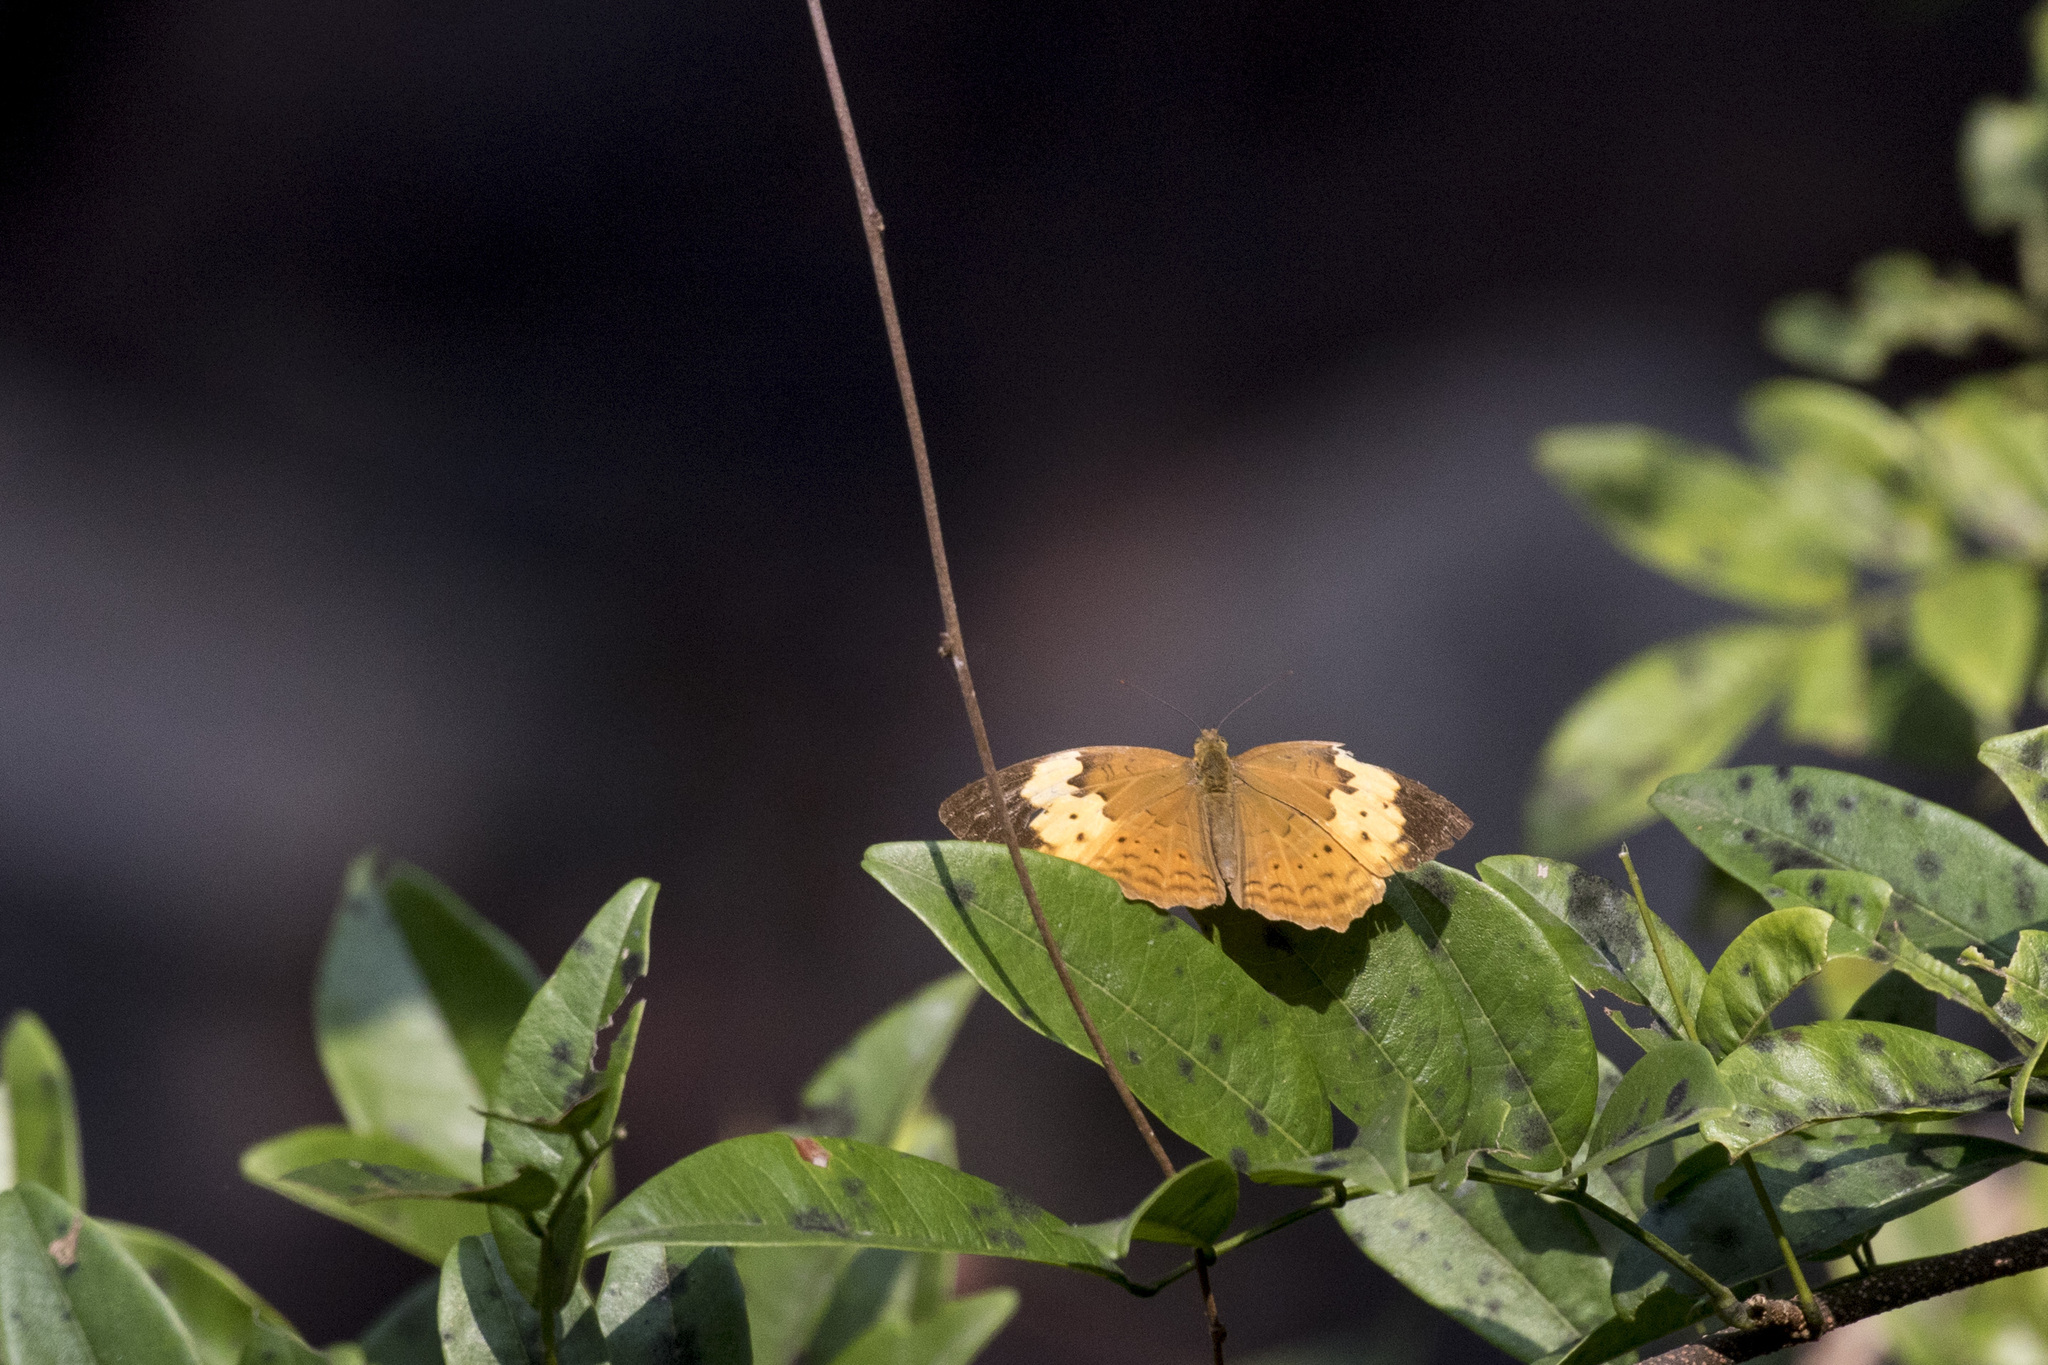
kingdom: Animalia
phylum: Arthropoda
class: Insecta
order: Lepidoptera
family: Nymphalidae
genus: Cupha
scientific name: Cupha erymanthis
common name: Rustic
